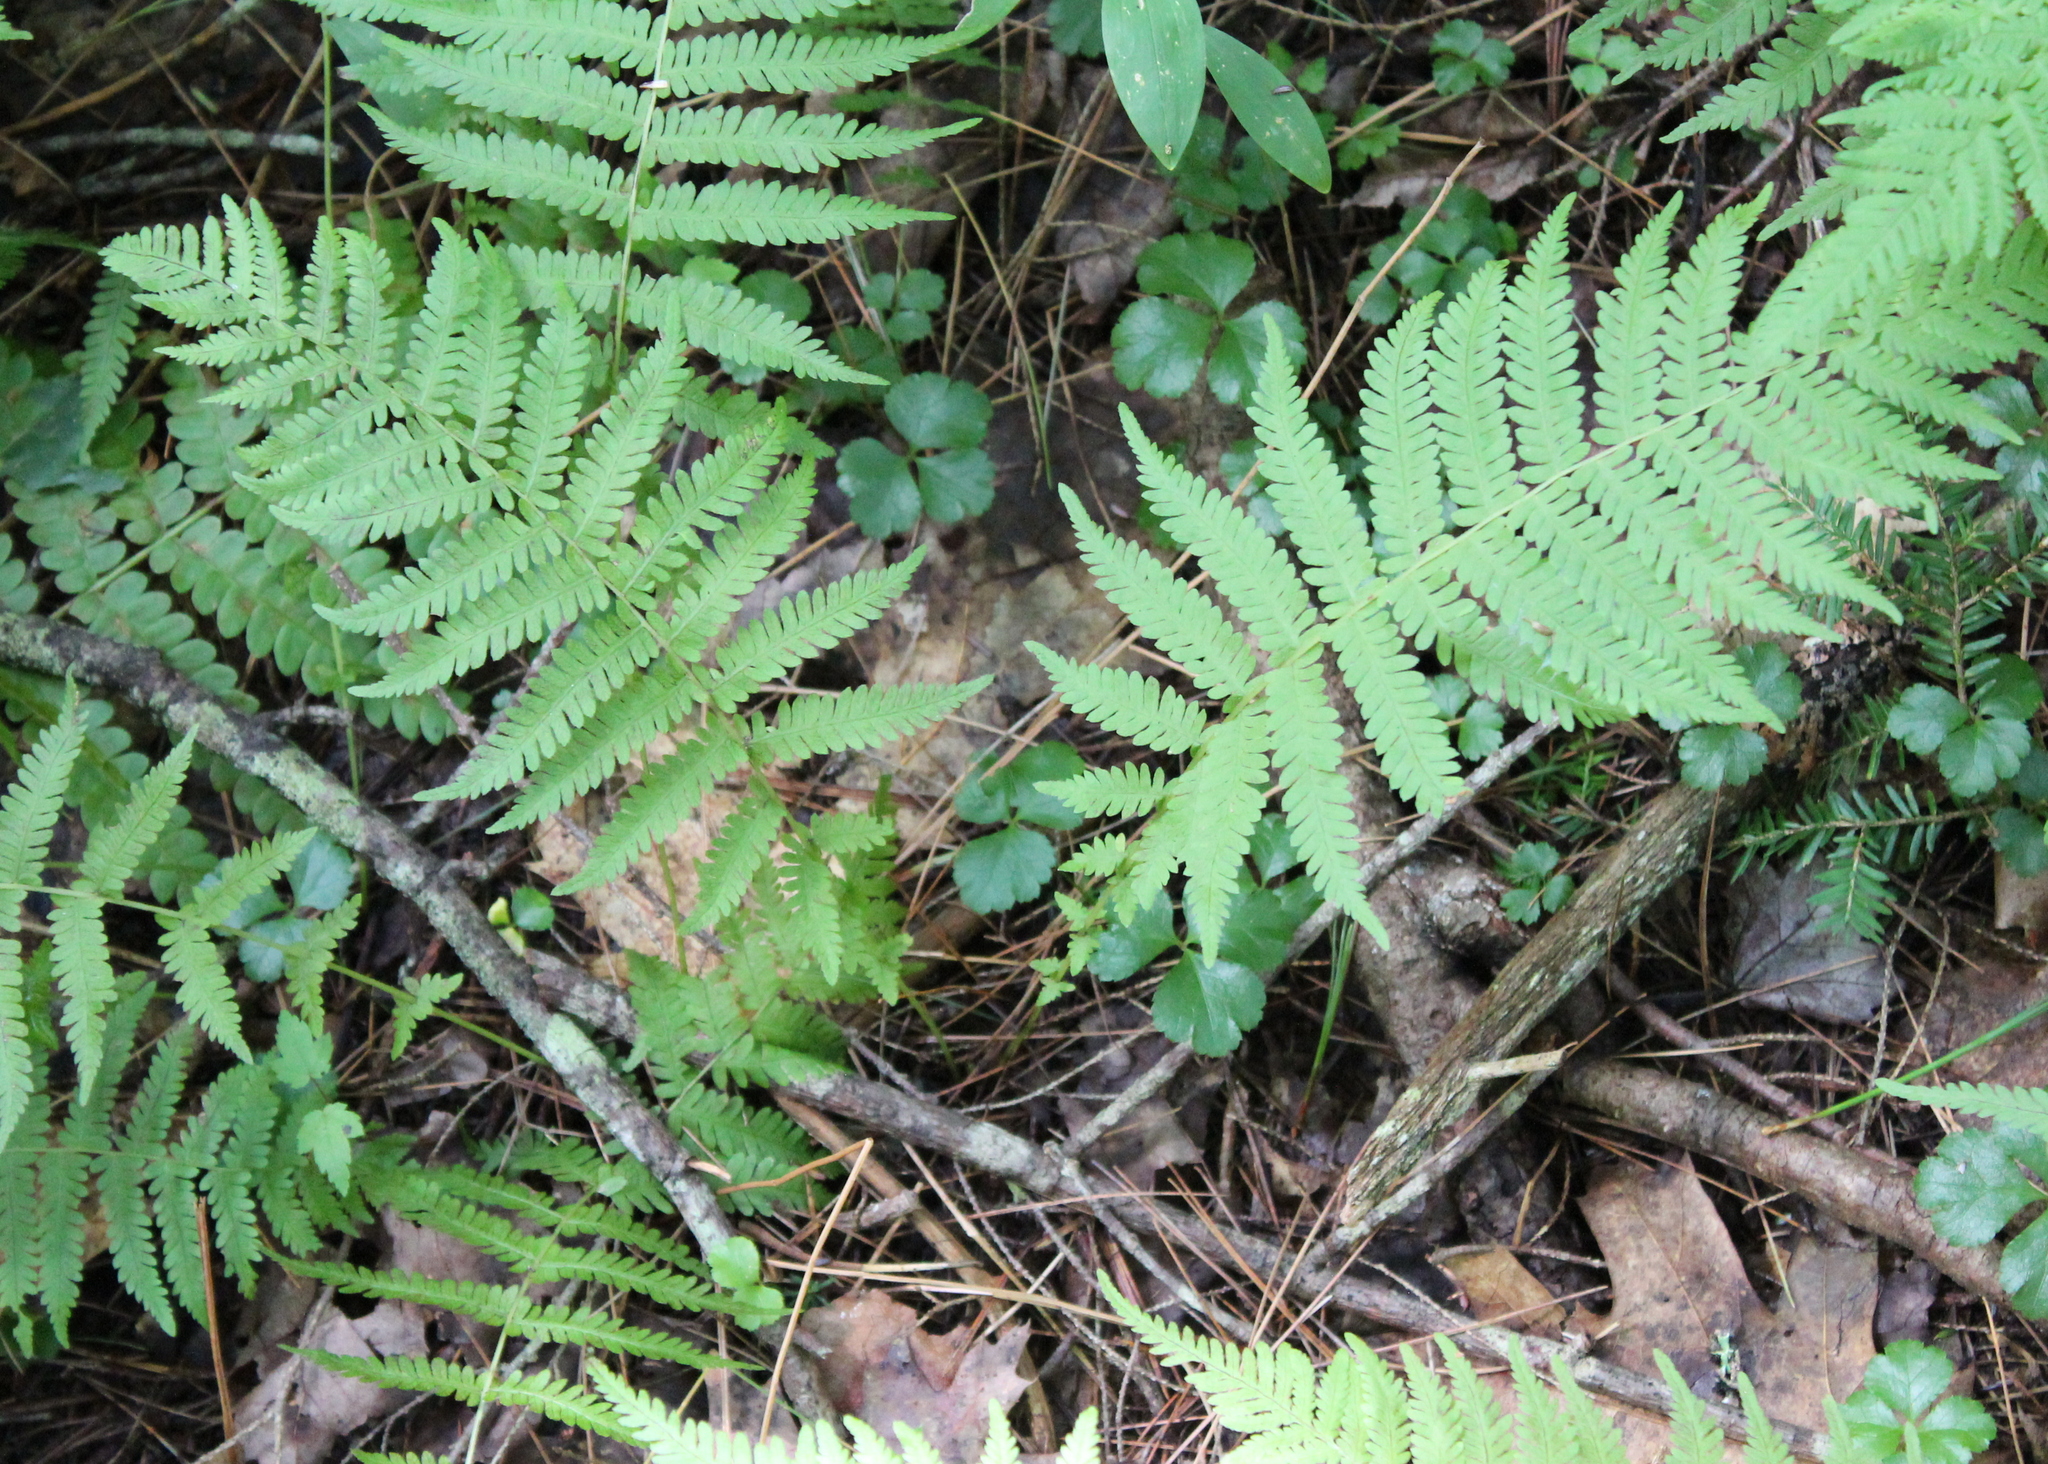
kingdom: Plantae
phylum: Tracheophyta
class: Polypodiopsida
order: Polypodiales
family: Thelypteridaceae
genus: Amauropelta
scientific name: Amauropelta noveboracensis
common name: New york fern
